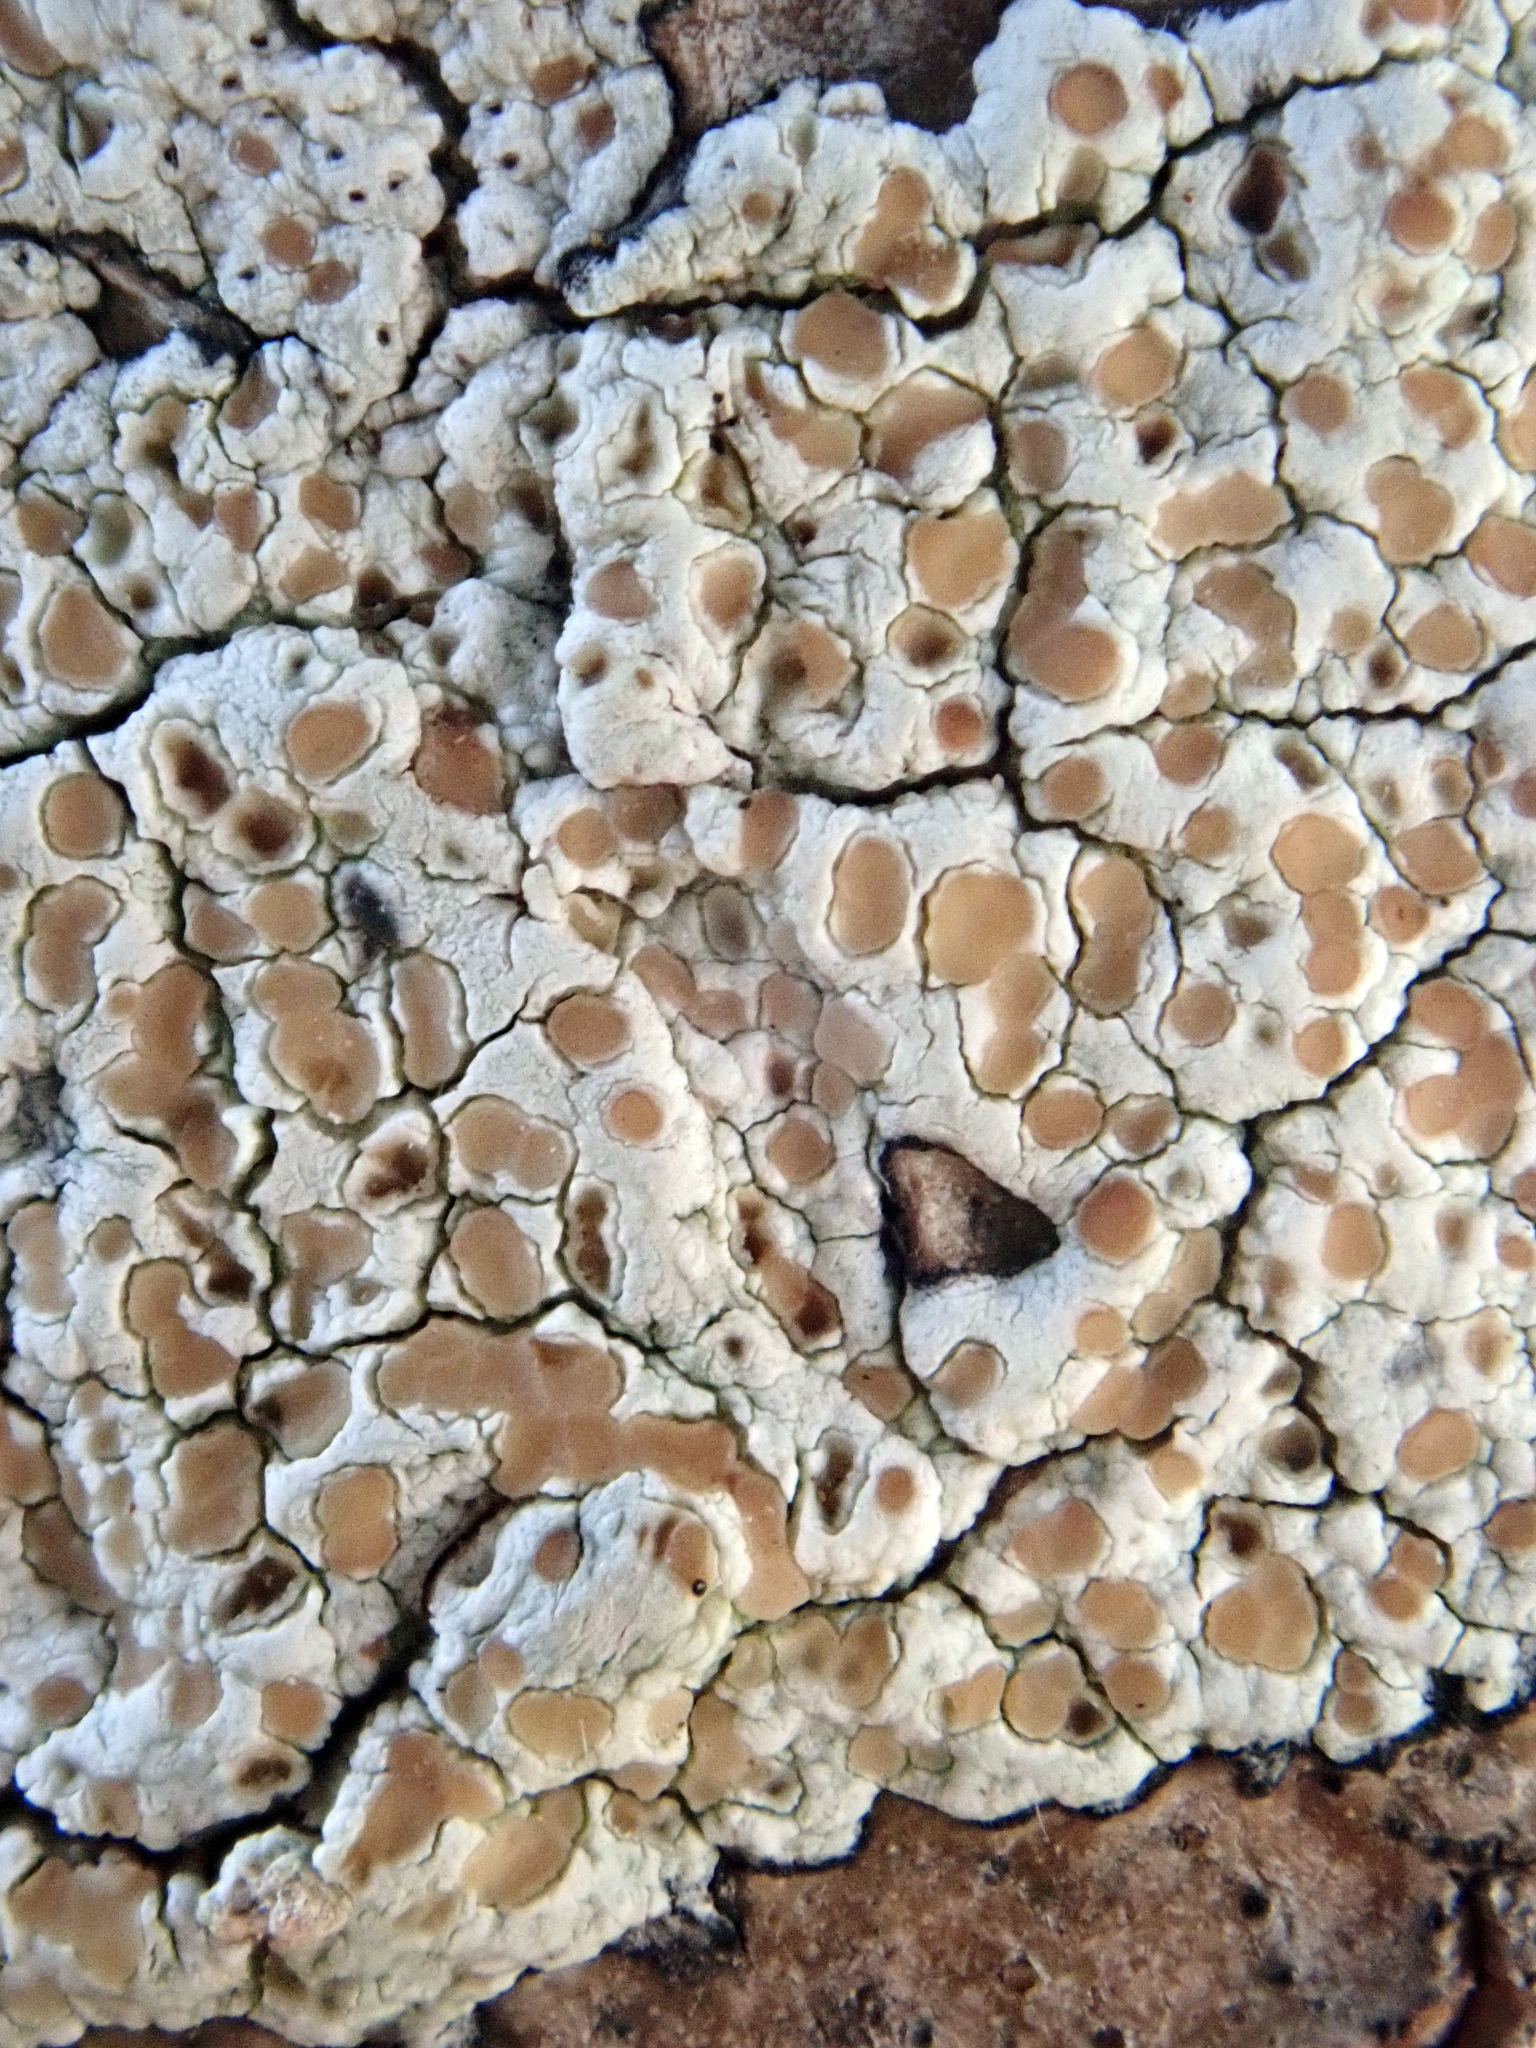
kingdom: Fungi
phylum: Ascomycota
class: Lecanoromycetes
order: Lecanorales
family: Lecanoraceae
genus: Lecanora
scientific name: Lecanora kohu
